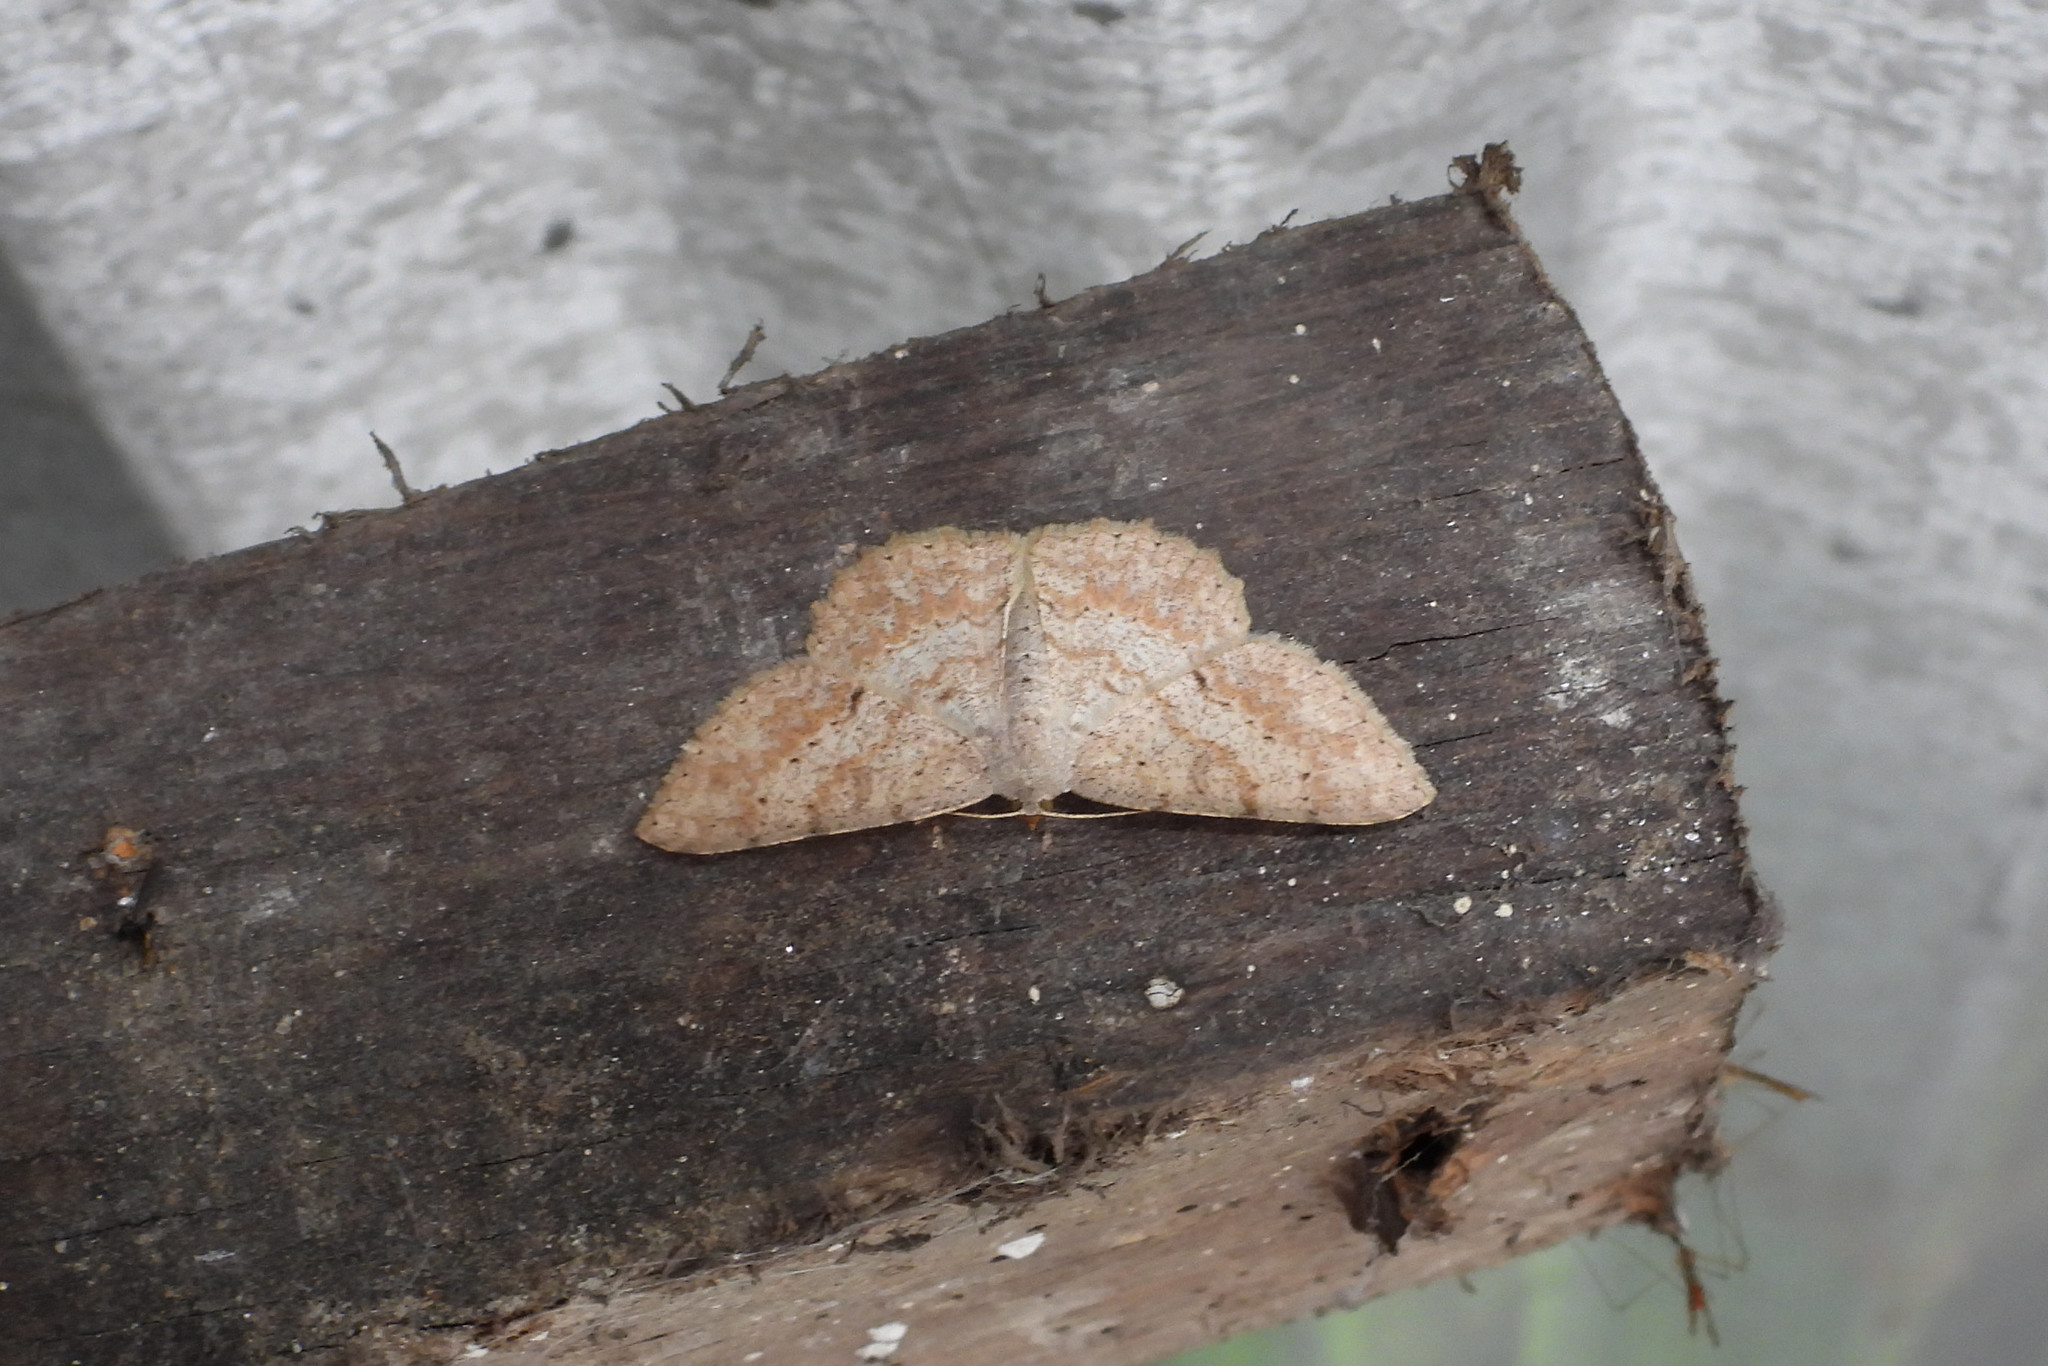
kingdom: Animalia
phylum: Arthropoda
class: Insecta
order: Lepidoptera
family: Geometridae
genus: Luxiaria
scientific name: Luxiaria acutaria
